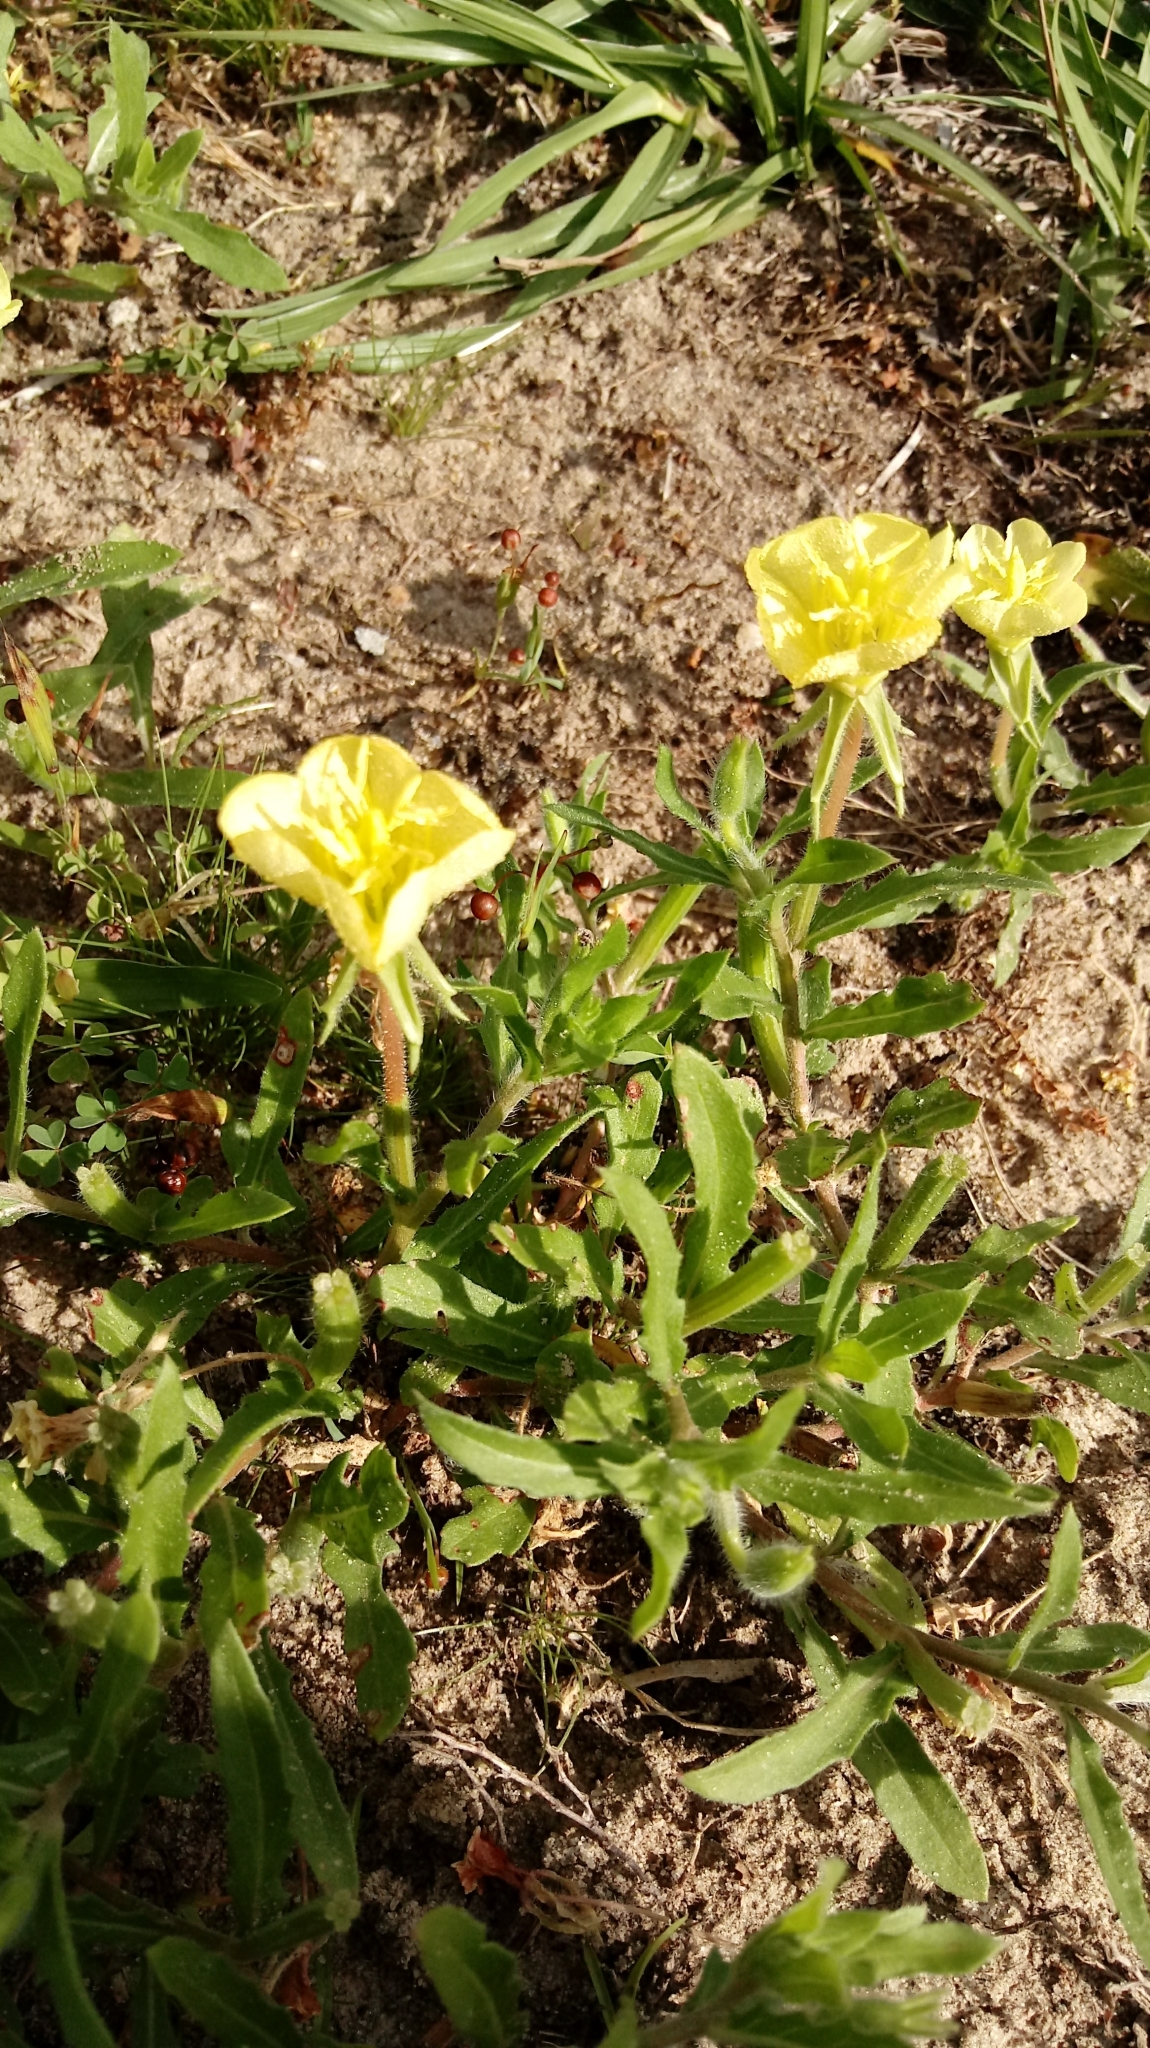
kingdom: Plantae
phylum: Tracheophyta
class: Magnoliopsida
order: Myrtales
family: Onagraceae
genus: Oenothera
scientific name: Oenothera laciniata
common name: Cut-leaved evening-primrose
